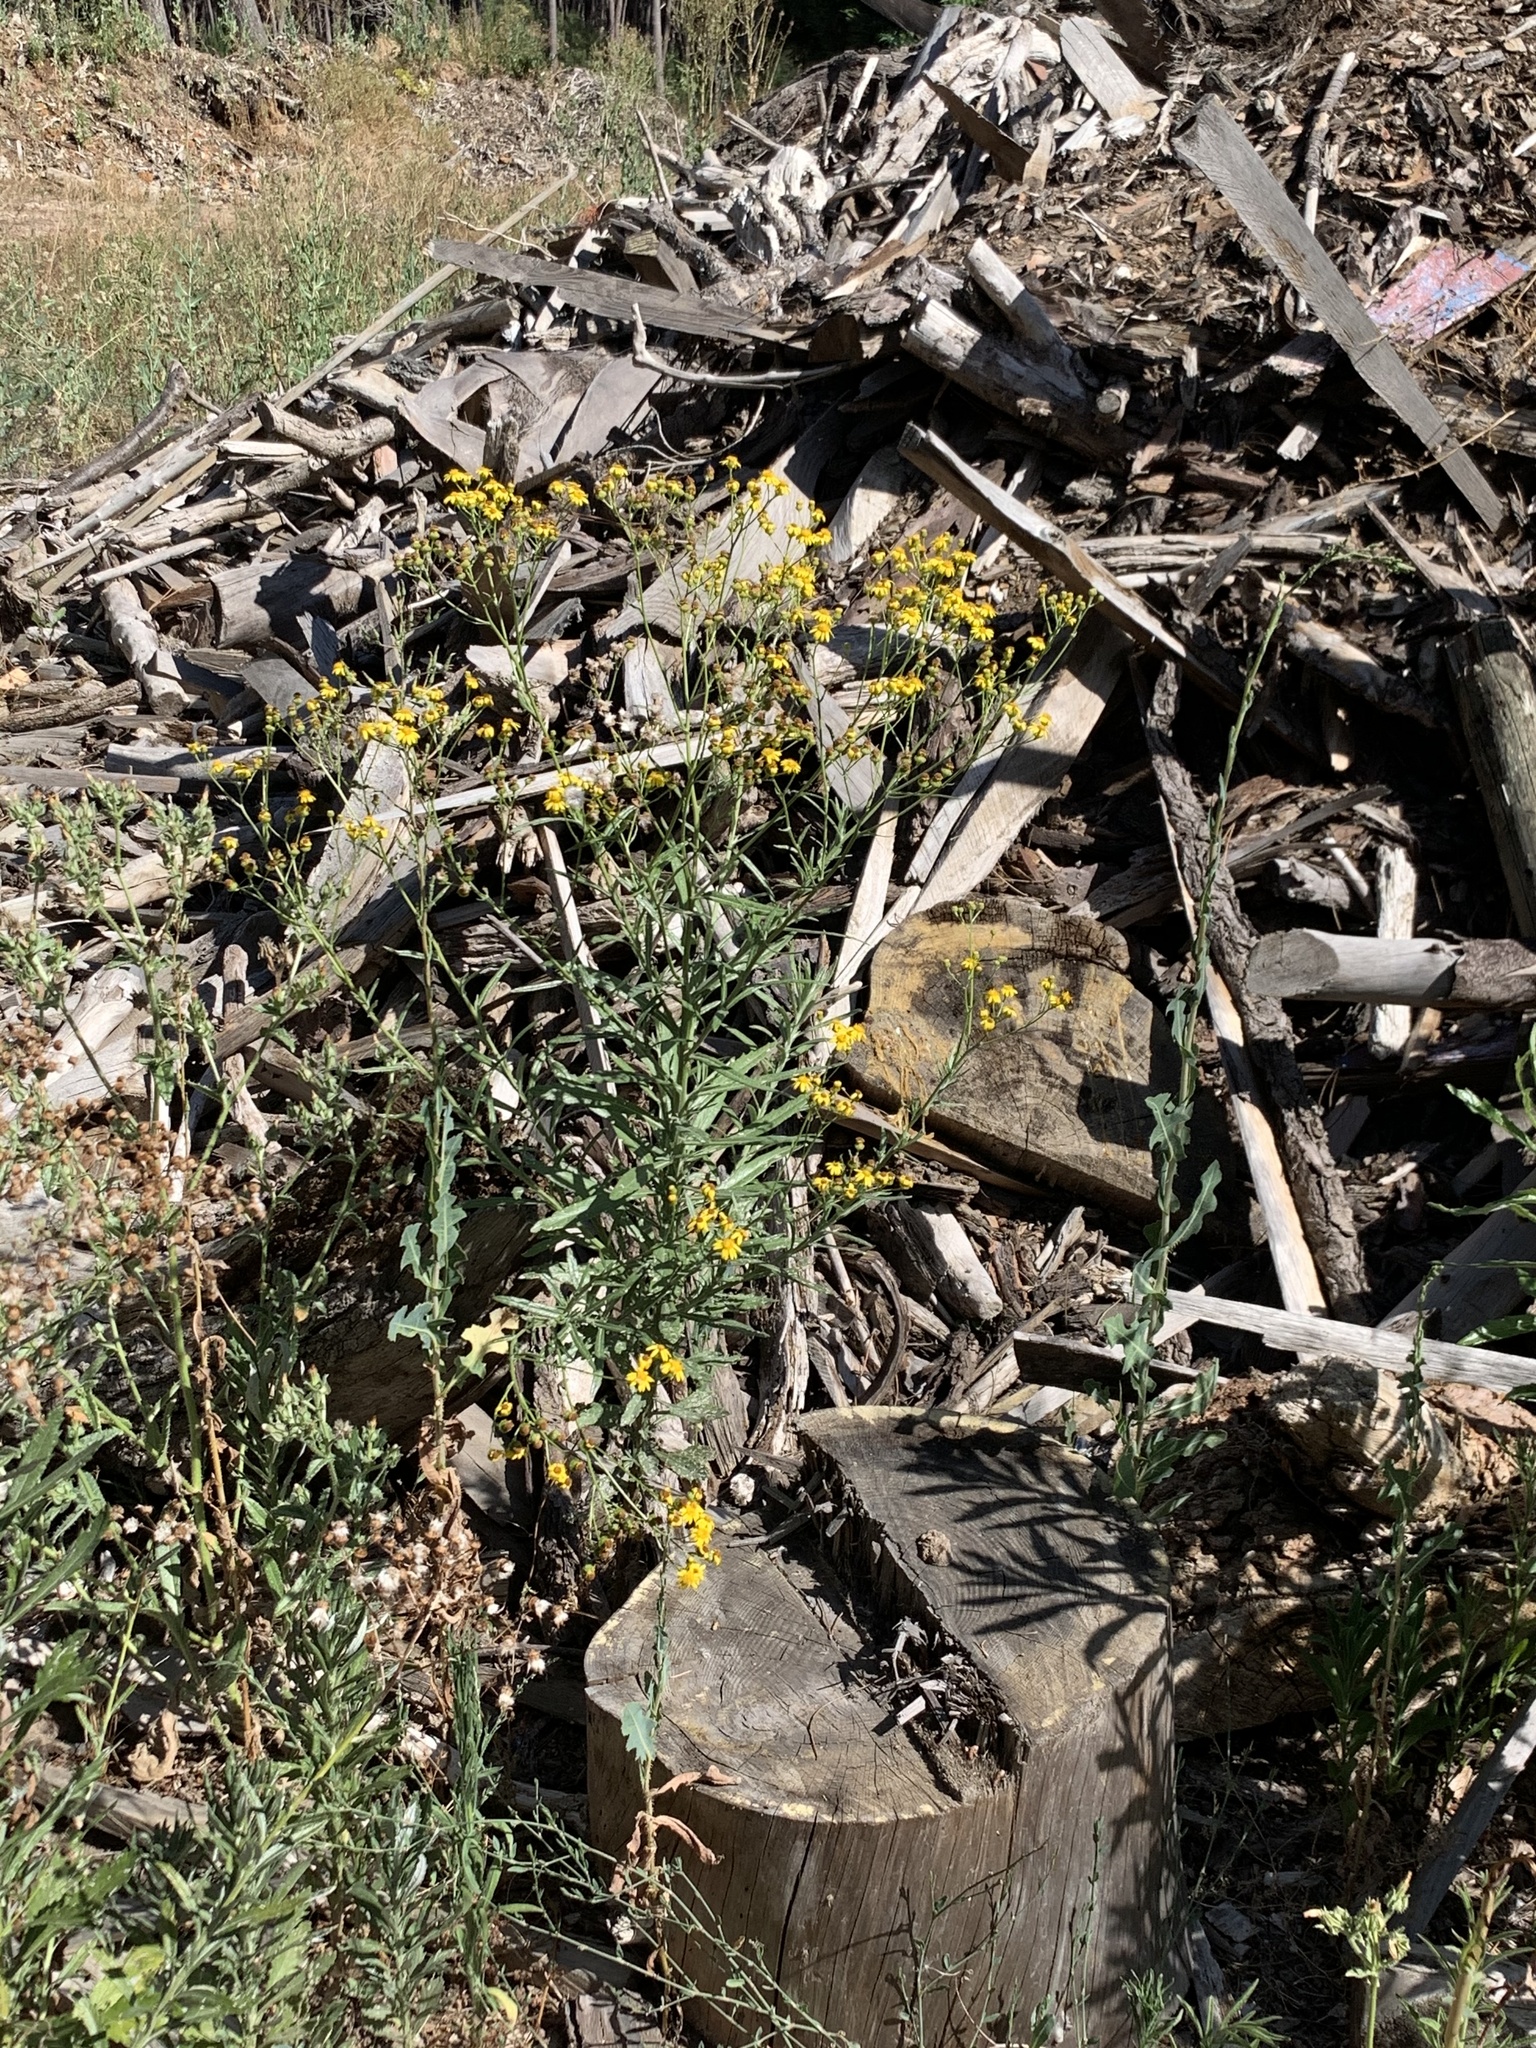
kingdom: Plantae
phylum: Tracheophyta
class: Magnoliopsida
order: Asterales
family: Asteraceae
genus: Senecio
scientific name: Senecio pterophorus
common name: Shoddy ragwort
